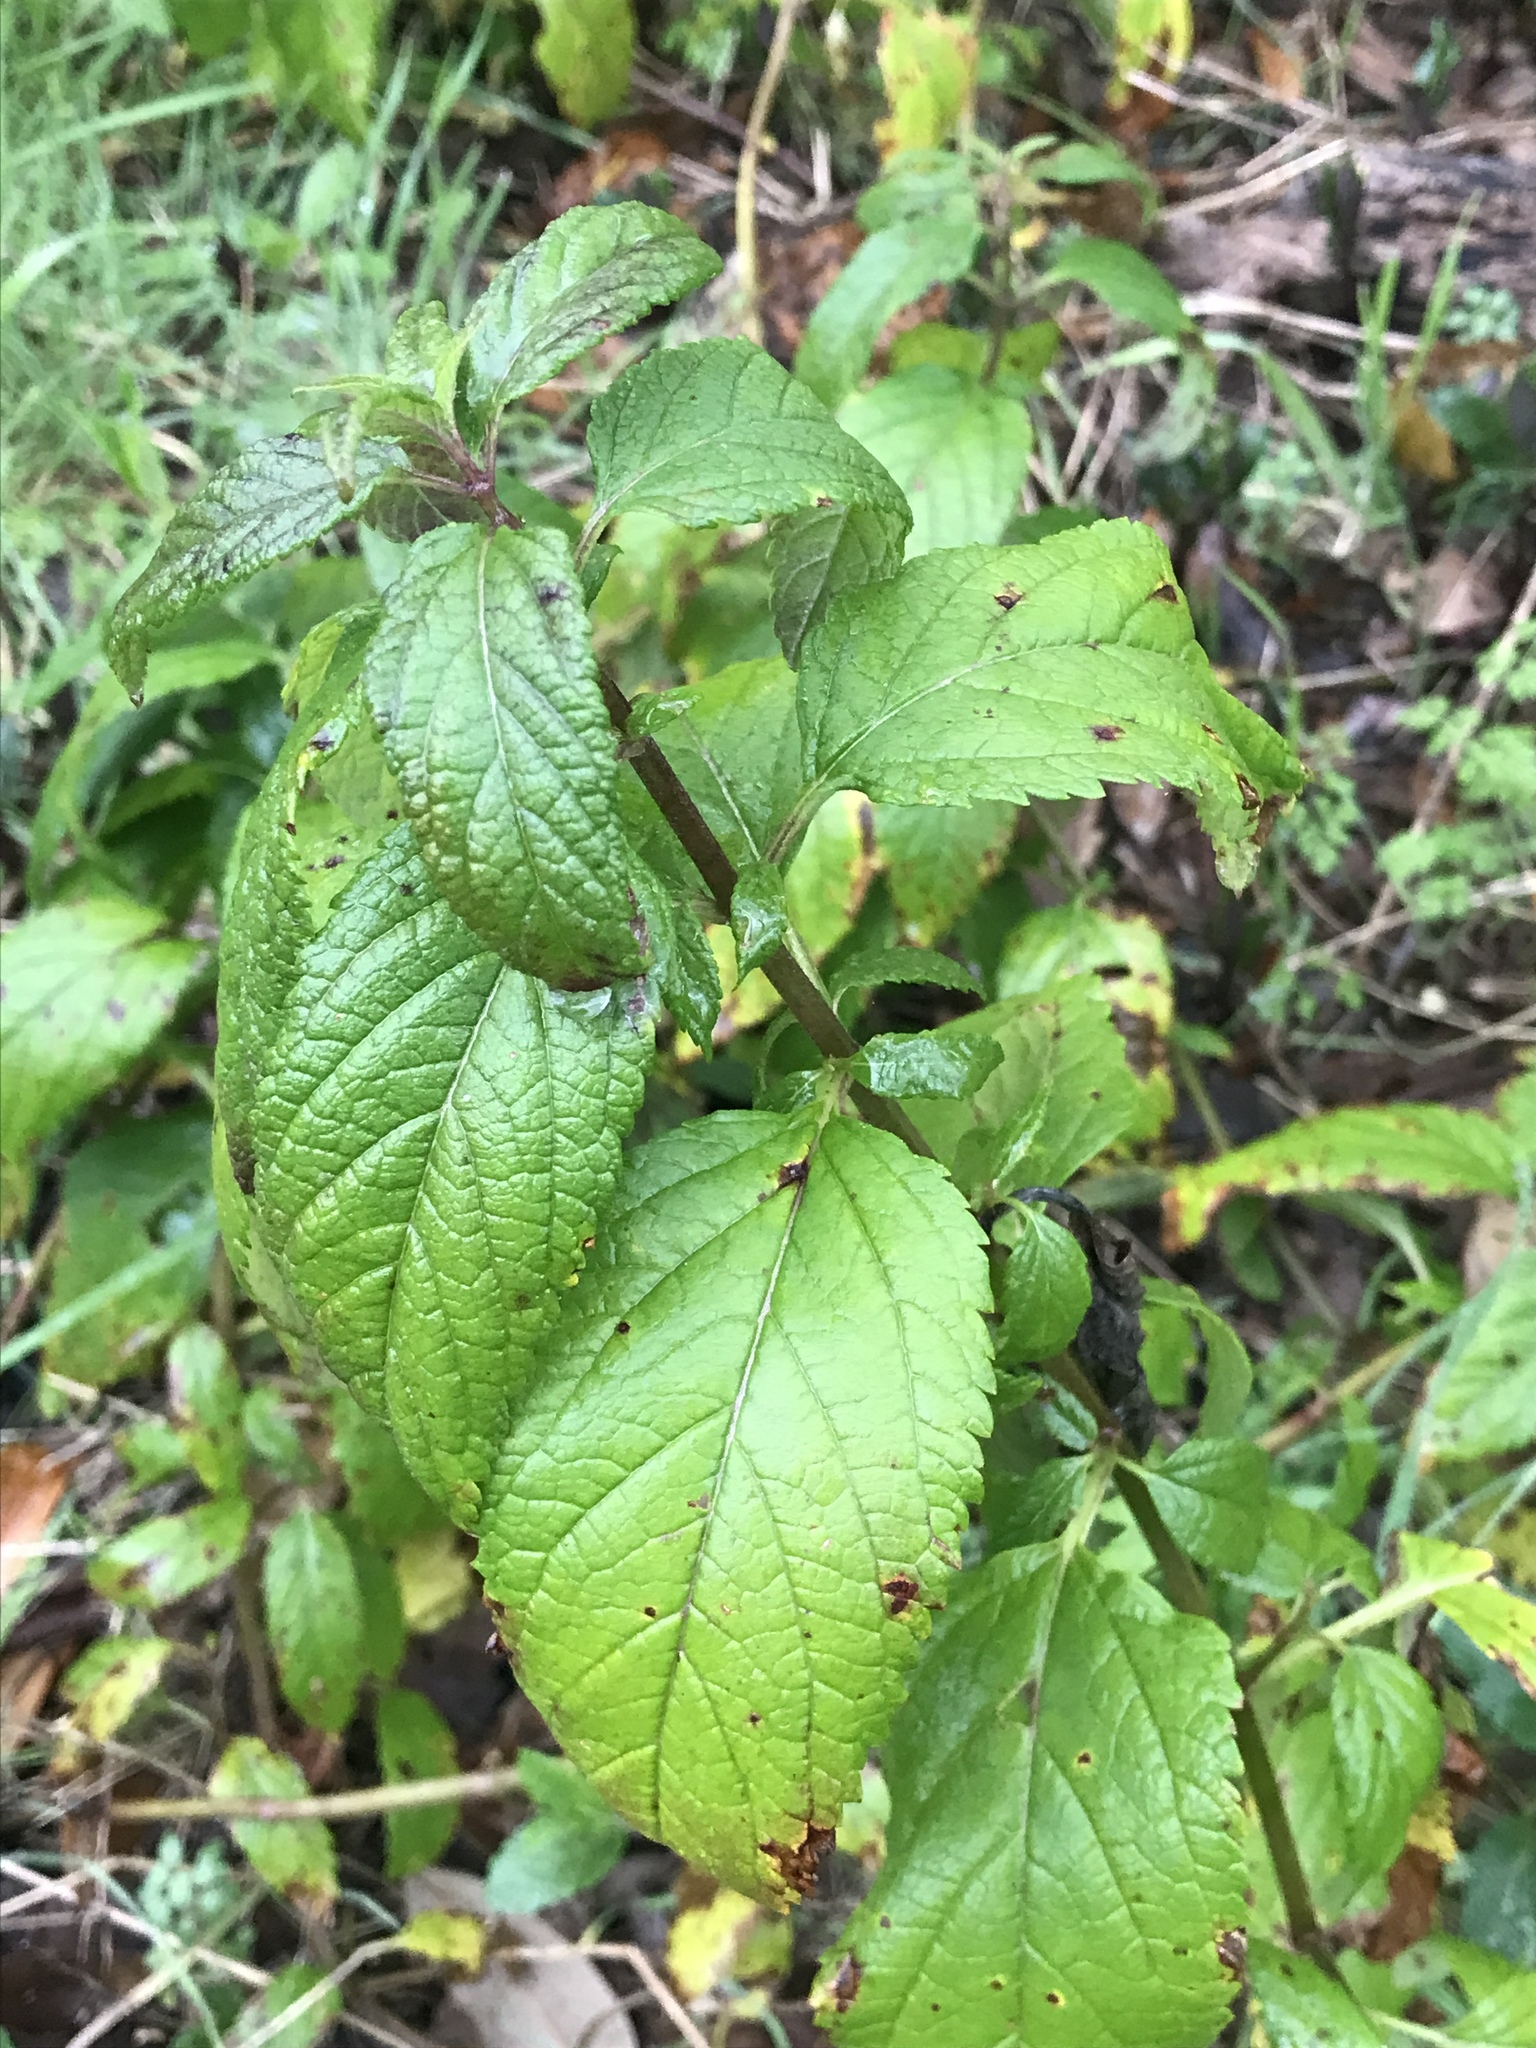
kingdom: Plantae
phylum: Tracheophyta
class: Magnoliopsida
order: Lamiales
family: Lamiaceae
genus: Teucrium
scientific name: Teucrium canadense
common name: American germander
